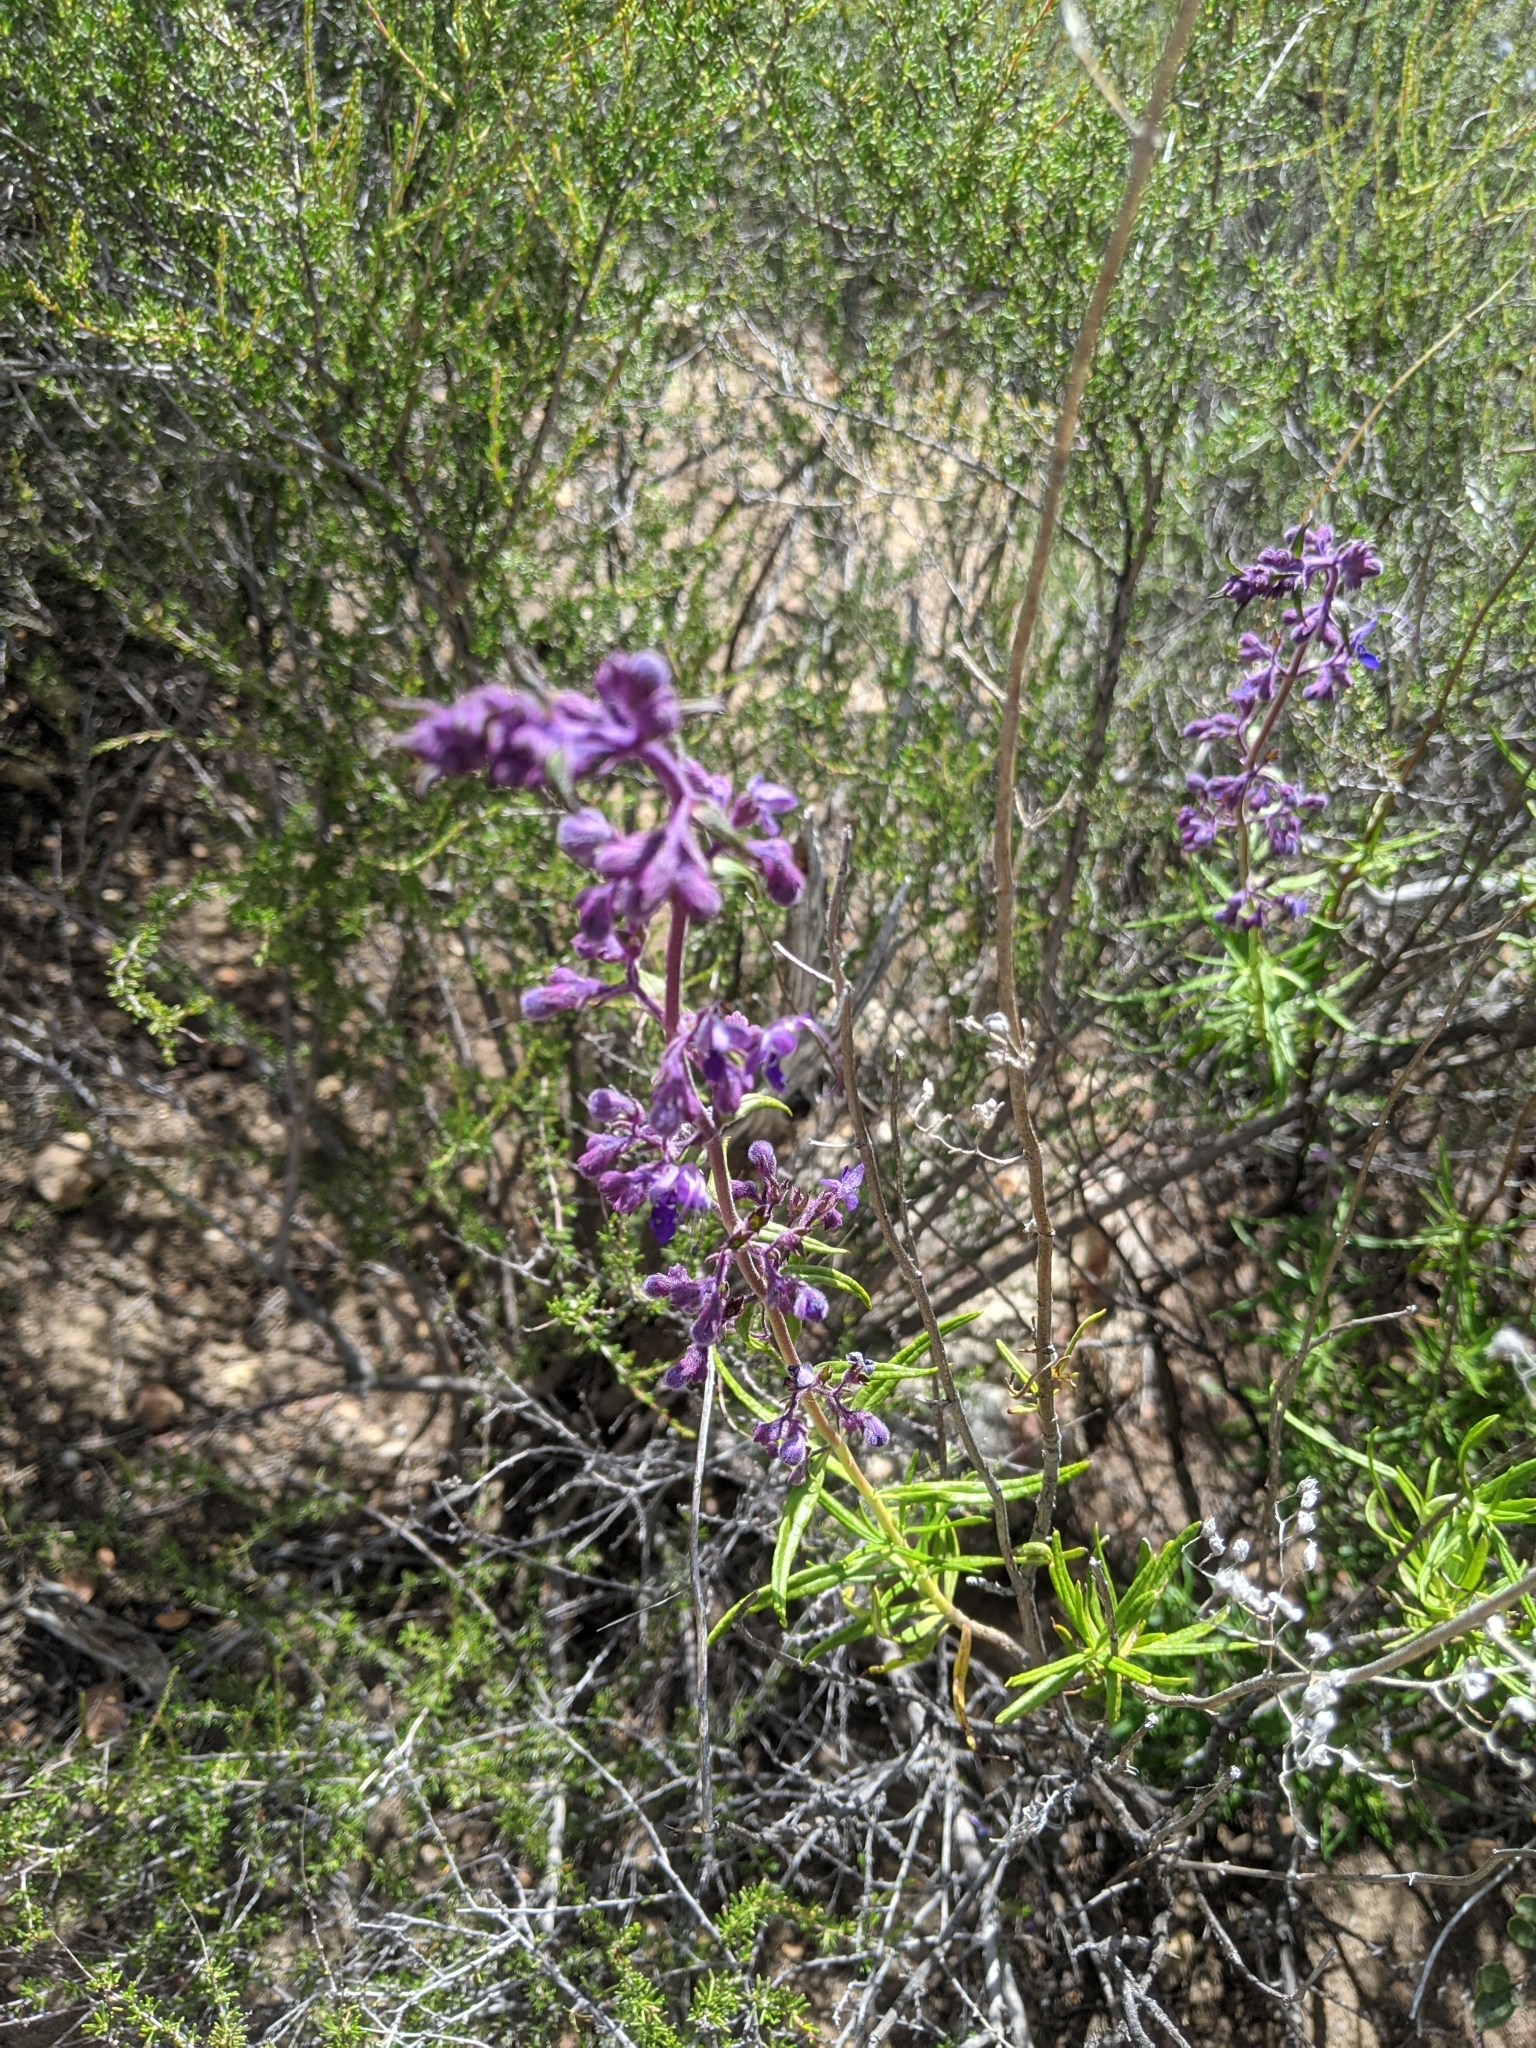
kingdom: Plantae
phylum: Tracheophyta
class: Magnoliopsida
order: Lamiales
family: Lamiaceae
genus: Trichostema
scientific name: Trichostema parishii
